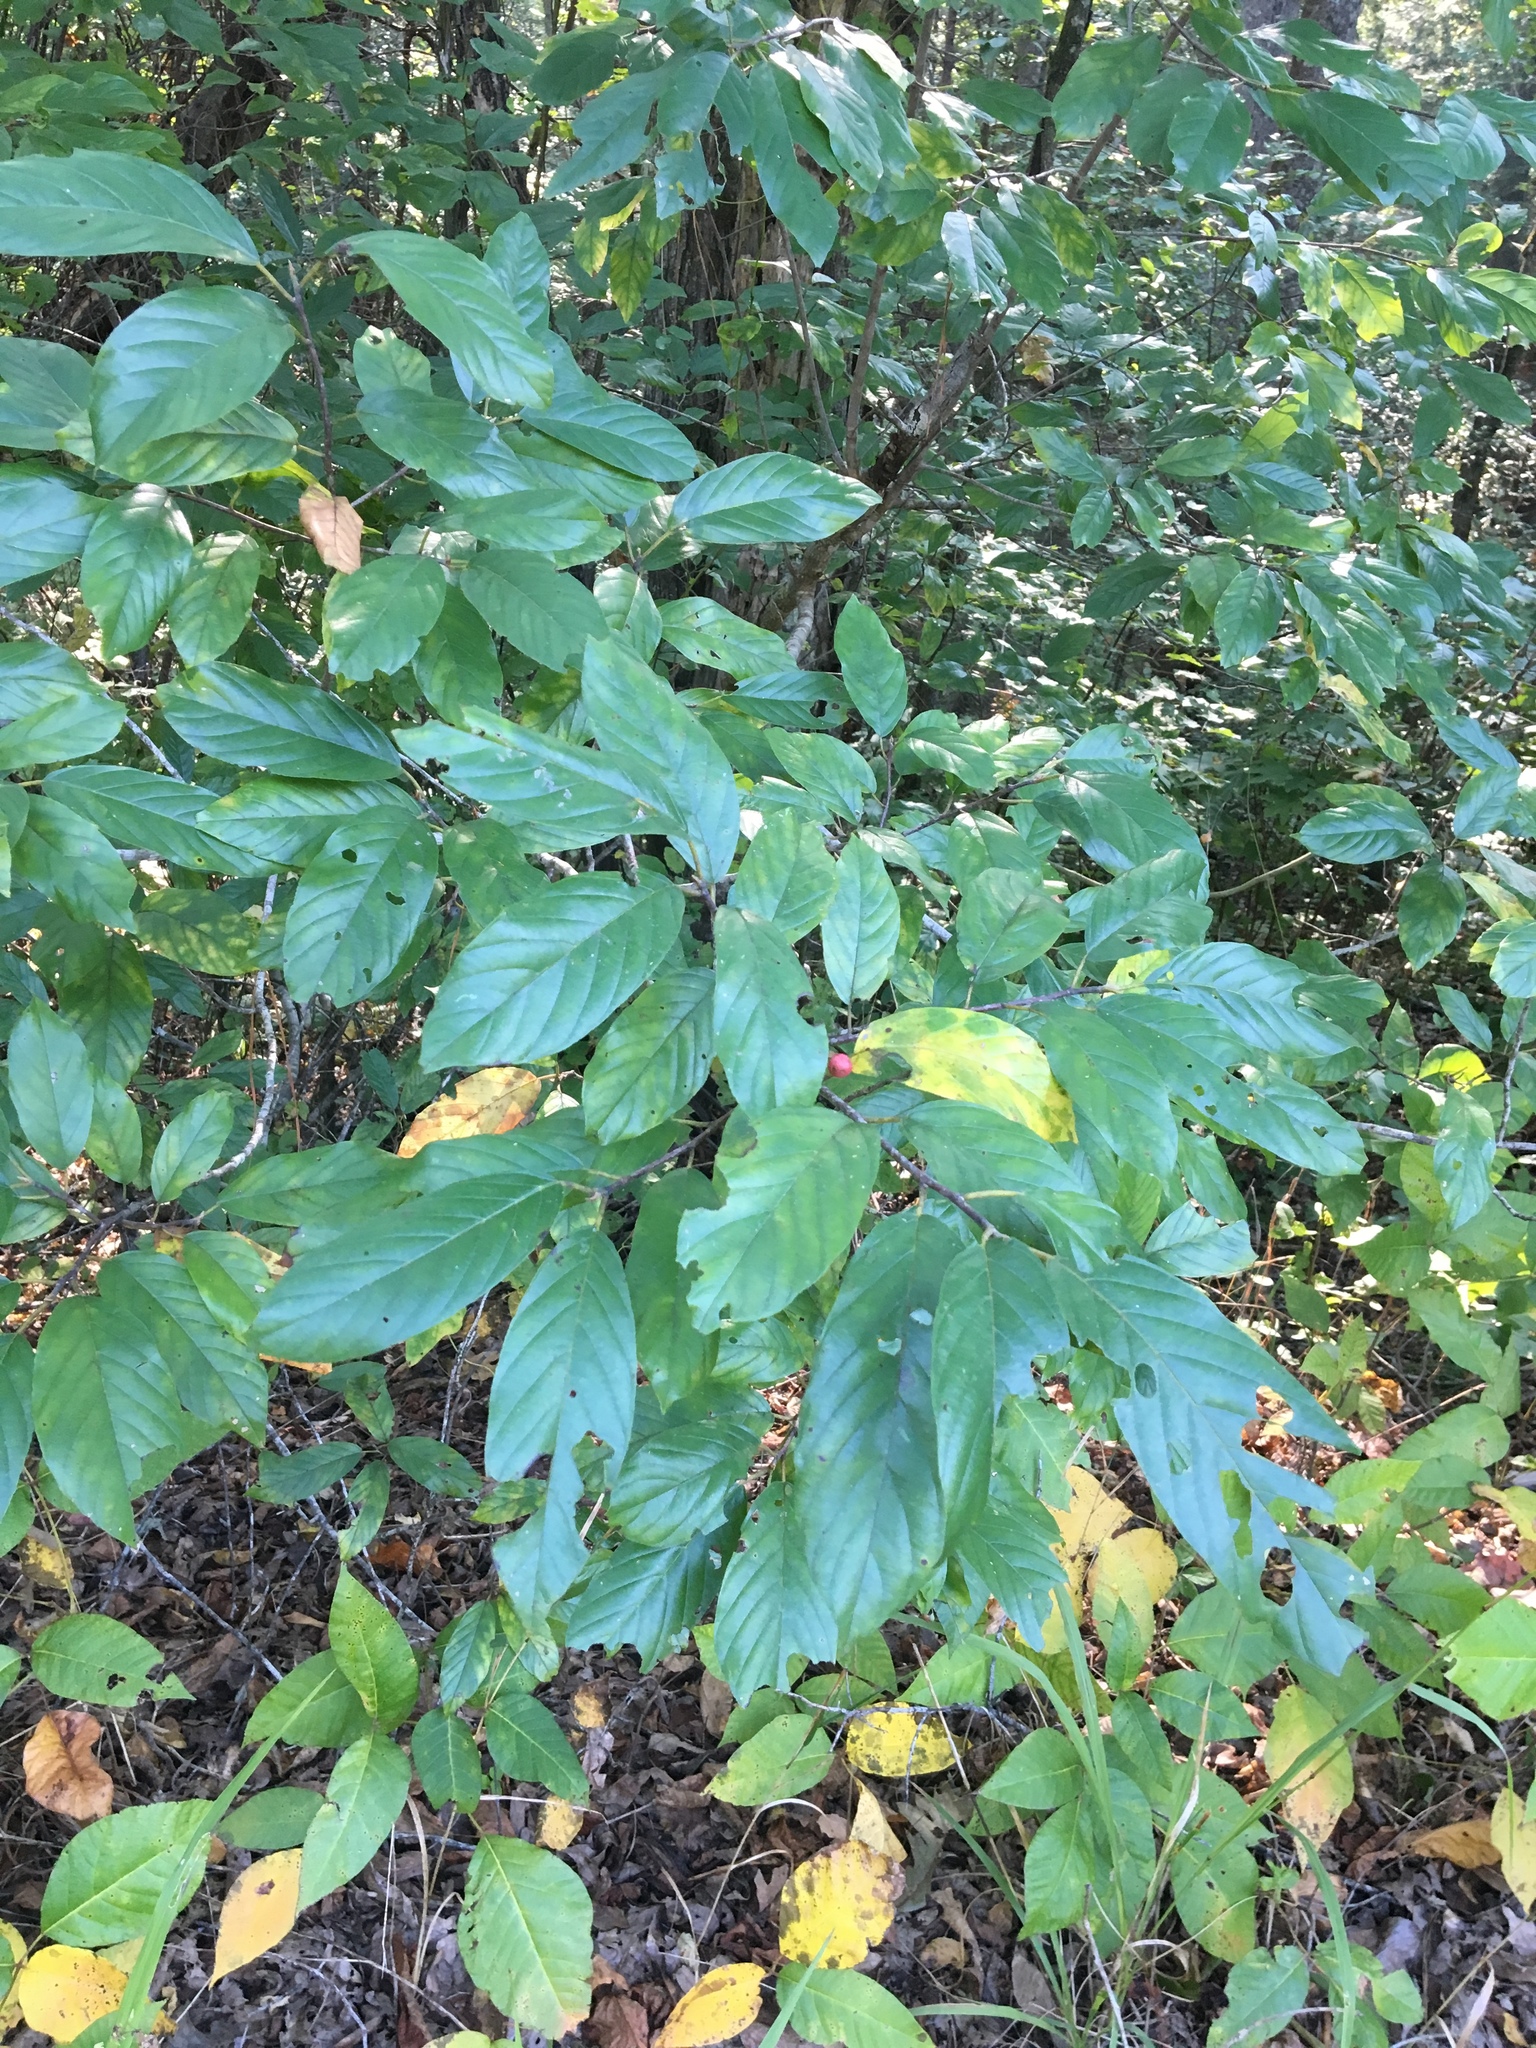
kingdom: Plantae
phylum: Tracheophyta
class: Magnoliopsida
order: Rosales
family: Rhamnaceae
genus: Frangula
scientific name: Frangula caroliniana
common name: Carolina buckthorn
